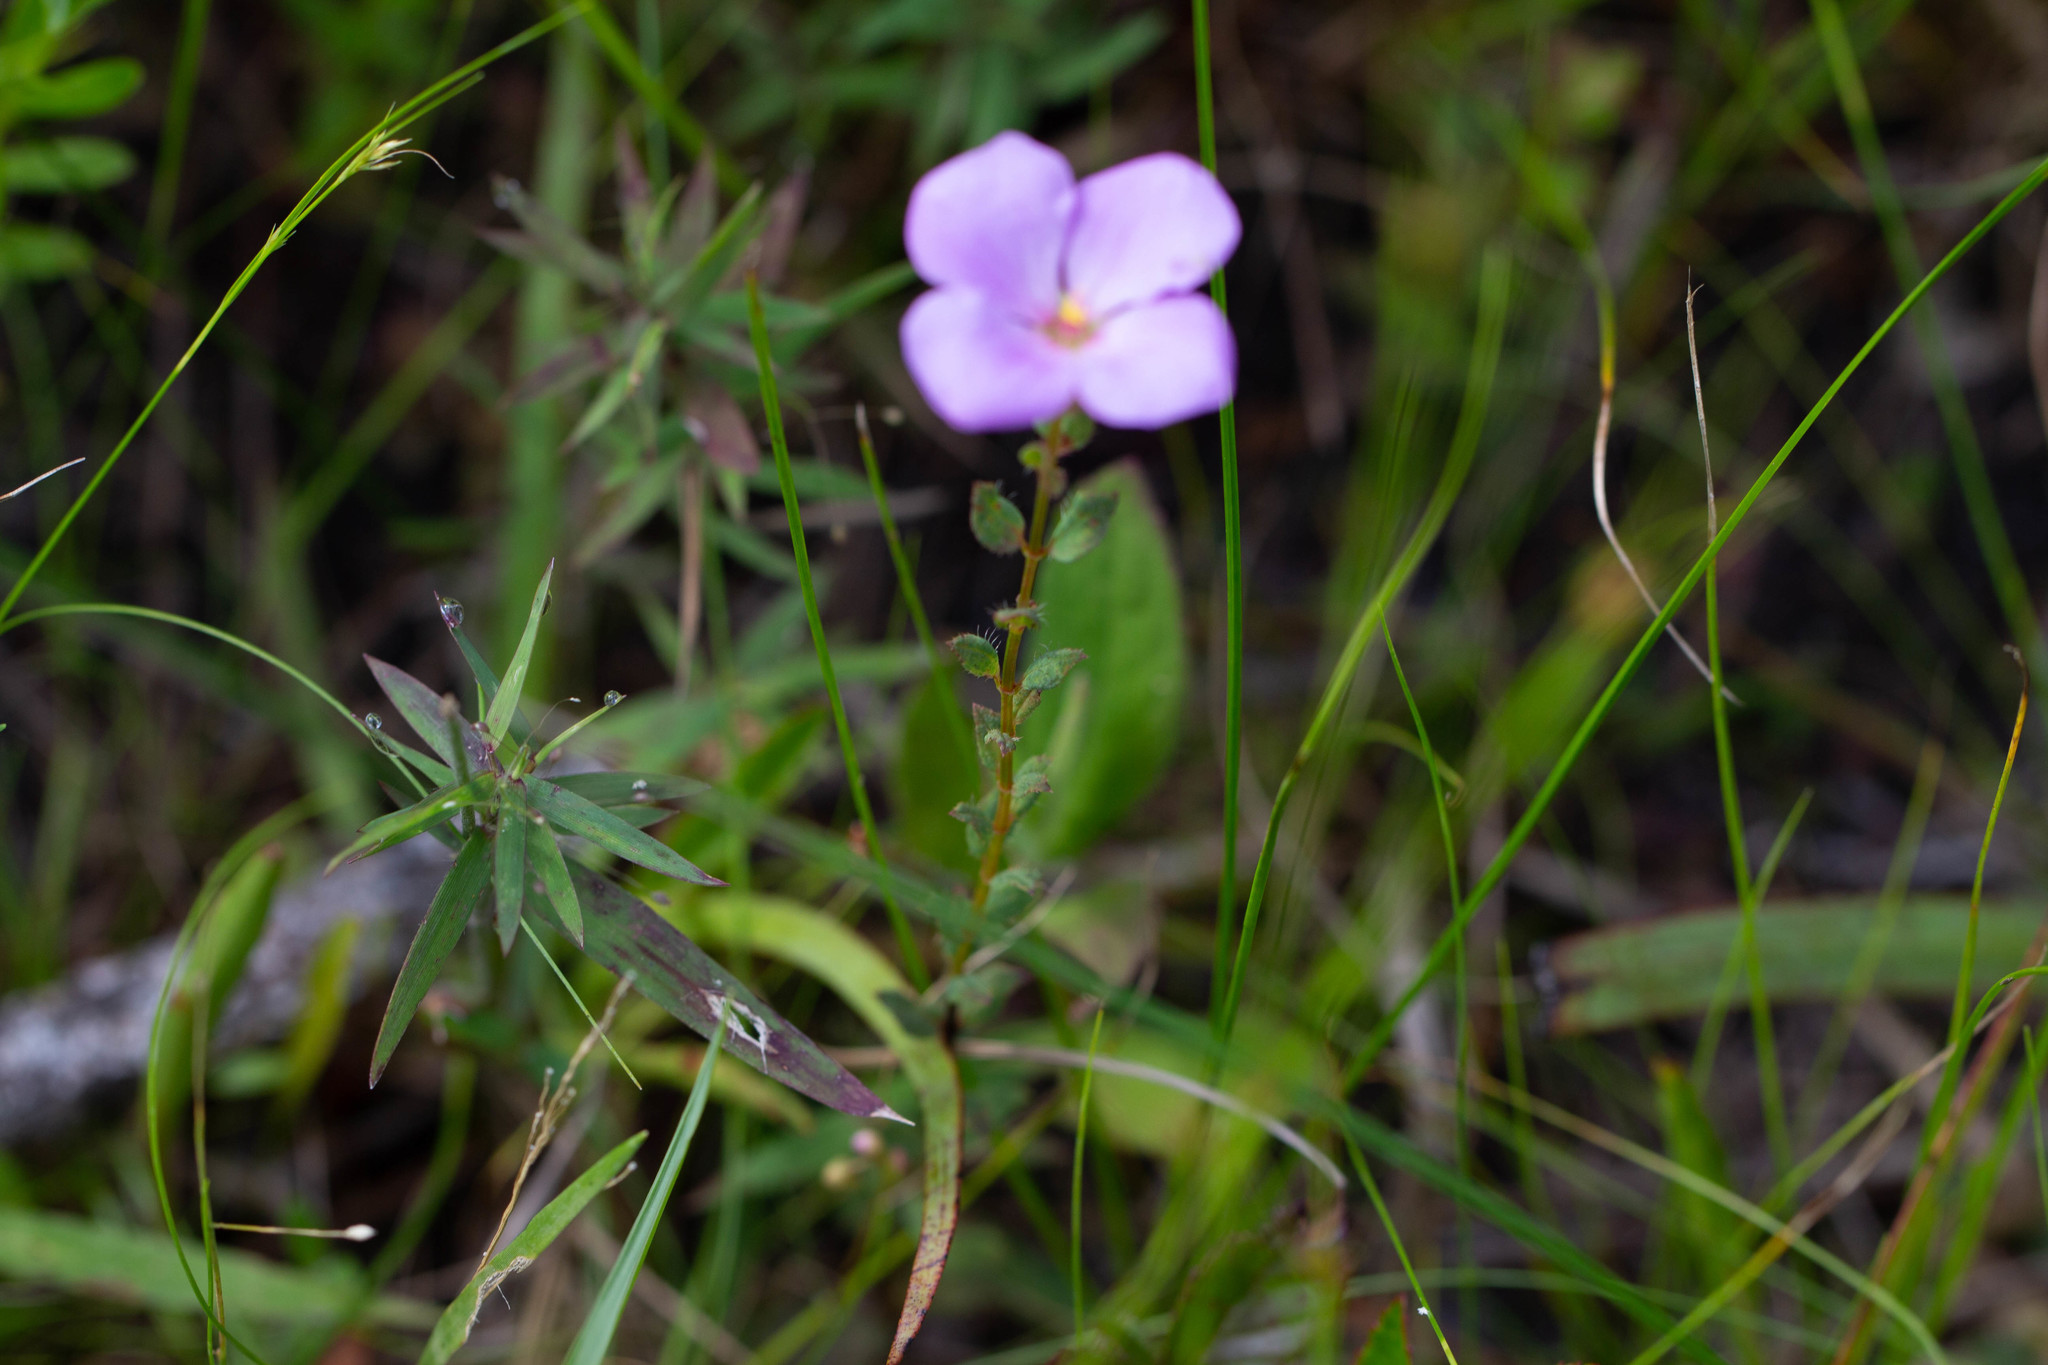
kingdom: Plantae
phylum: Tracheophyta
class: Magnoliopsida
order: Myrtales
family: Melastomataceae
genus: Rhexia
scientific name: Rhexia petiolata
